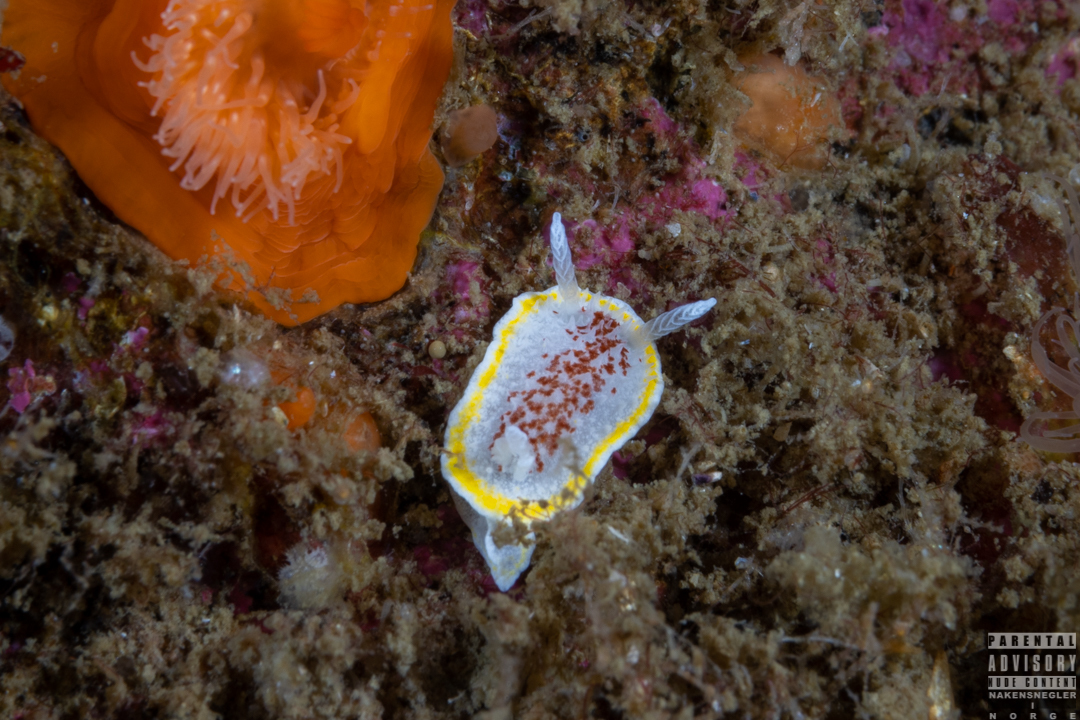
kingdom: Animalia
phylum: Mollusca
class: Gastropoda
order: Nudibranchia
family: Calycidorididae
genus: Diaphorodoris
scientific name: Diaphorodoris luteocincta
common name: Fried egg nudibranch
